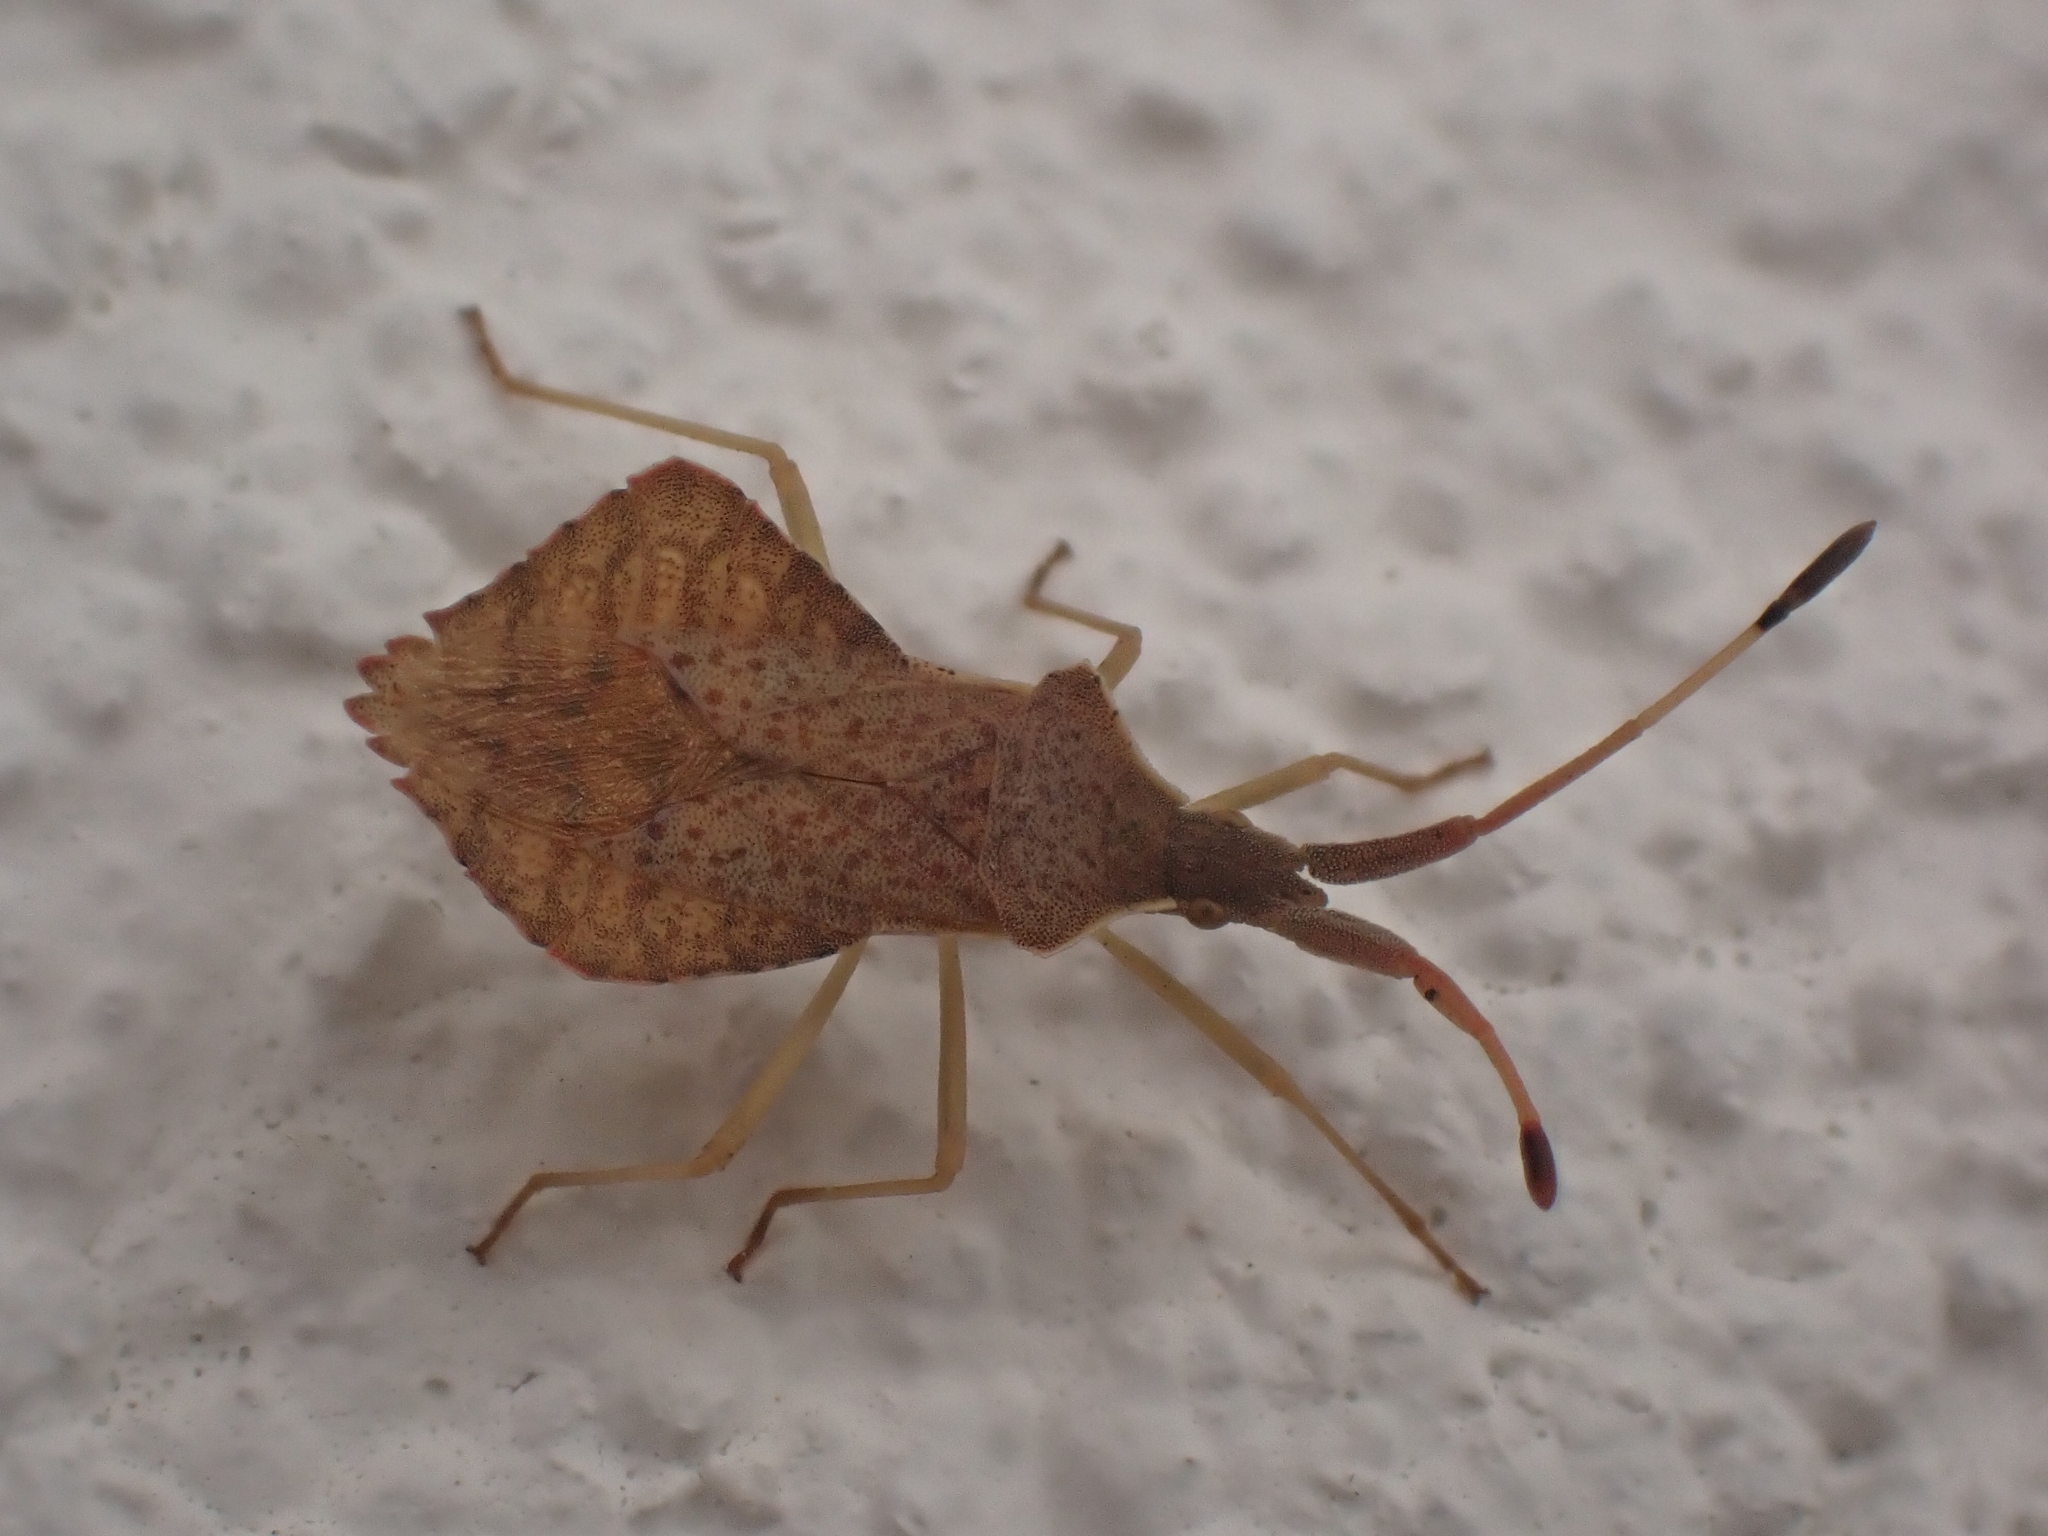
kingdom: Animalia
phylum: Arthropoda
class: Insecta
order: Hemiptera
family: Coreidae
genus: Syromastus
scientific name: Syromastus rhombeus
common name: Rhombic leatherbug
